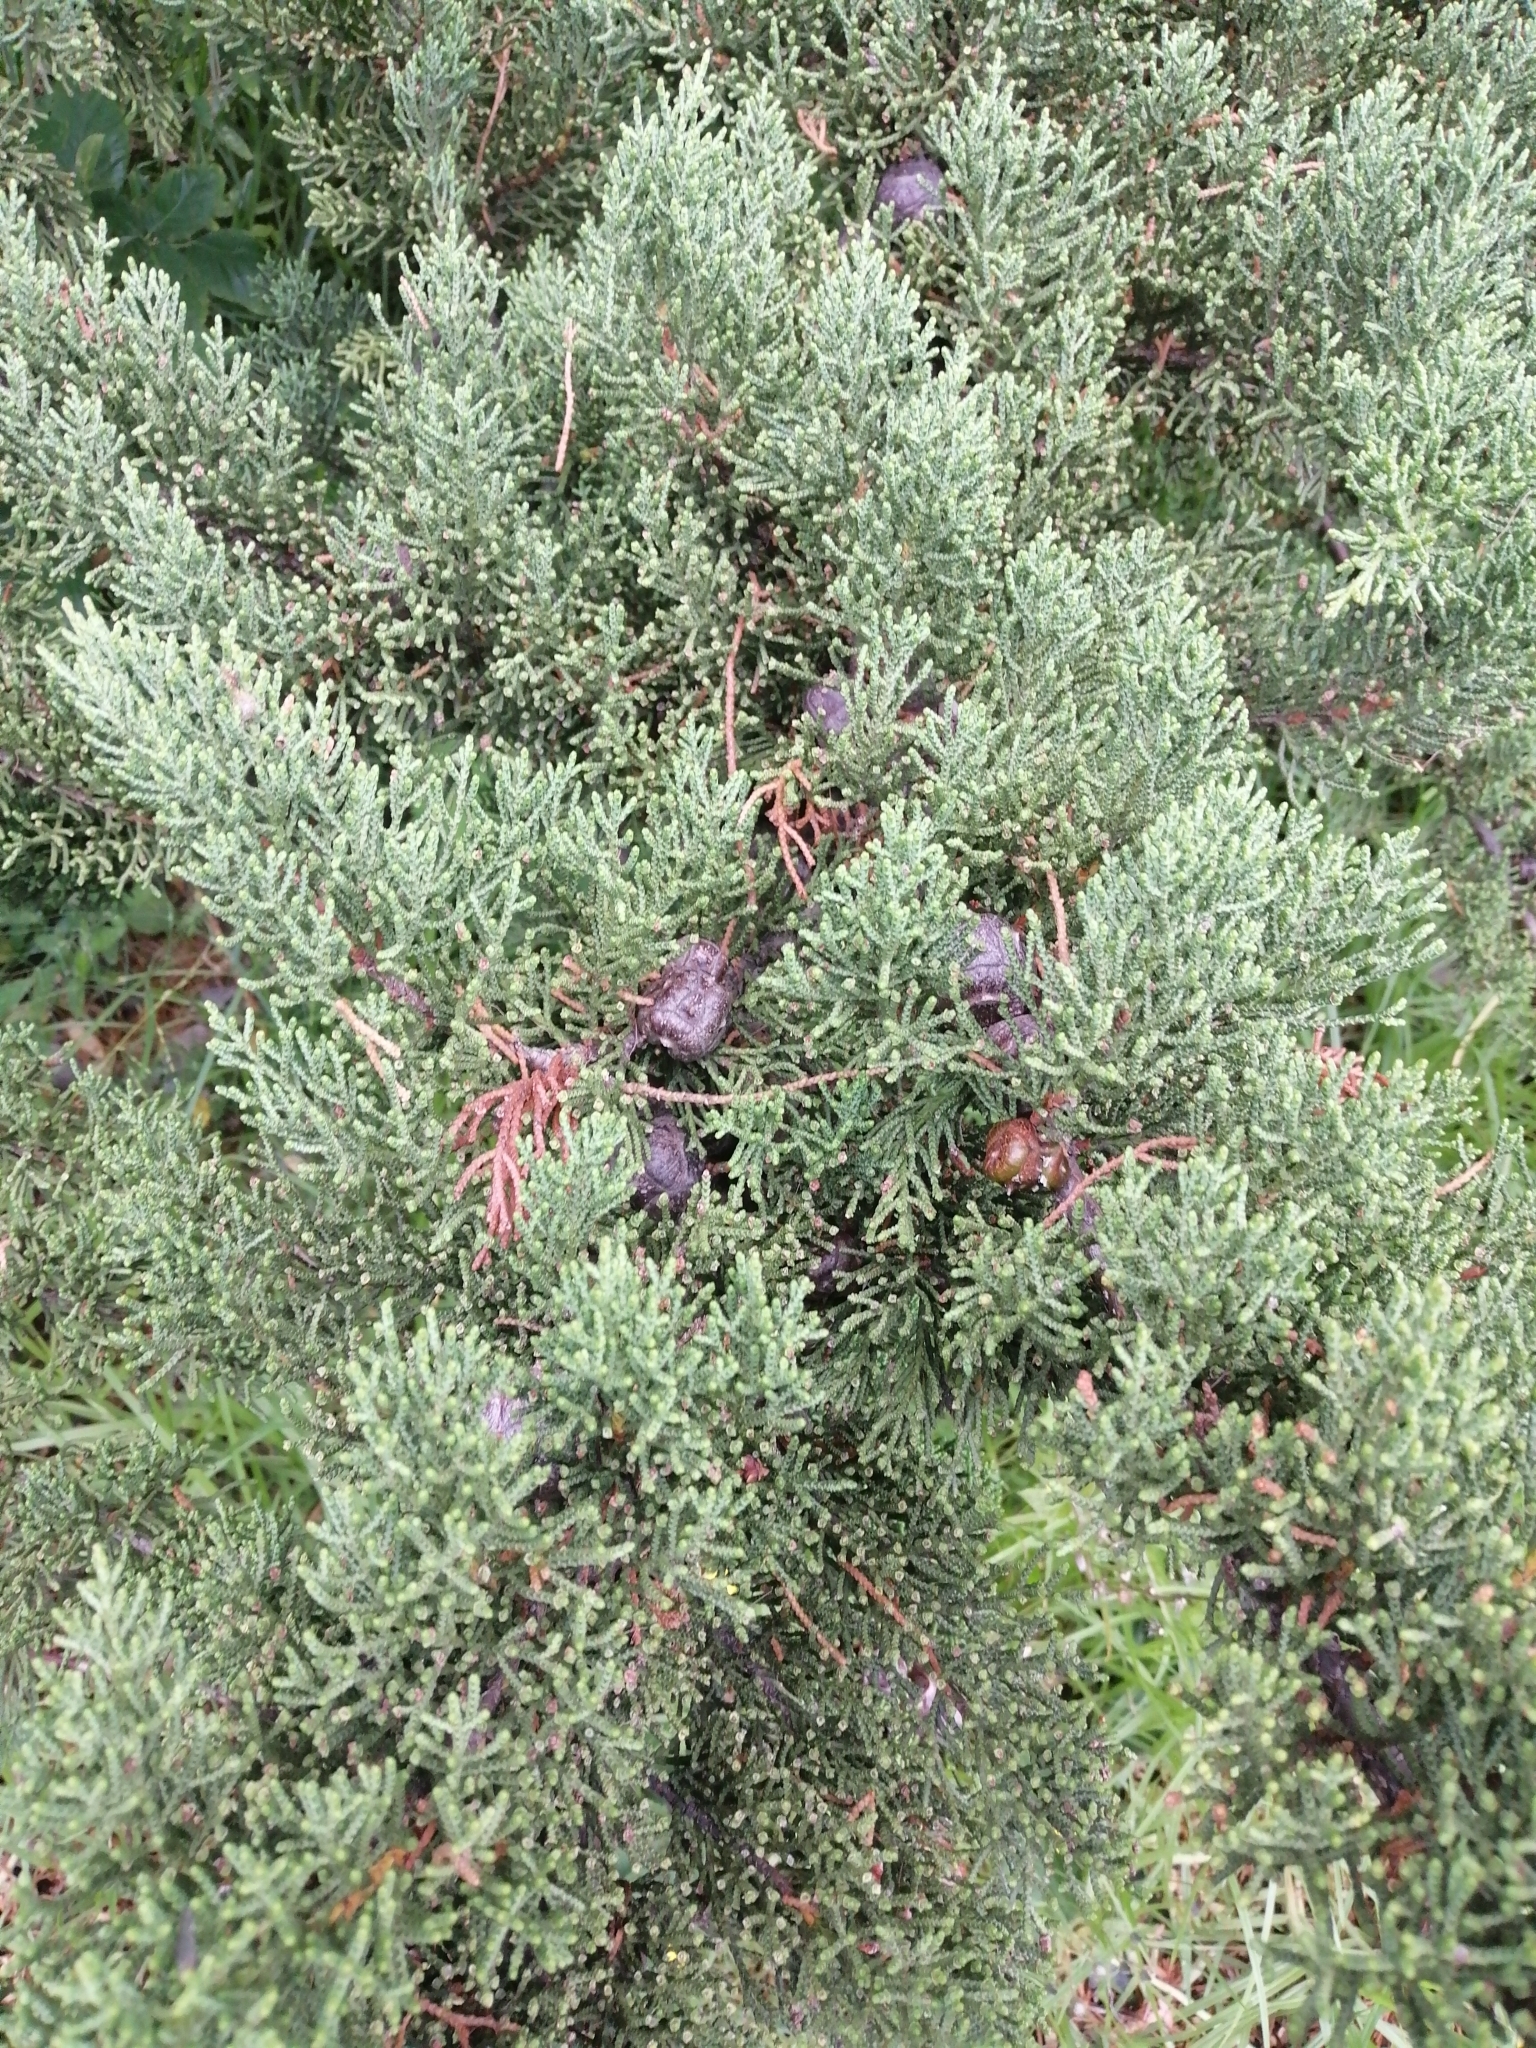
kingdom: Plantae
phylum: Tracheophyta
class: Pinopsida
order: Pinales
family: Cupressaceae
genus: Cupressus
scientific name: Cupressus macrocarpa
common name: Monterey cypress
